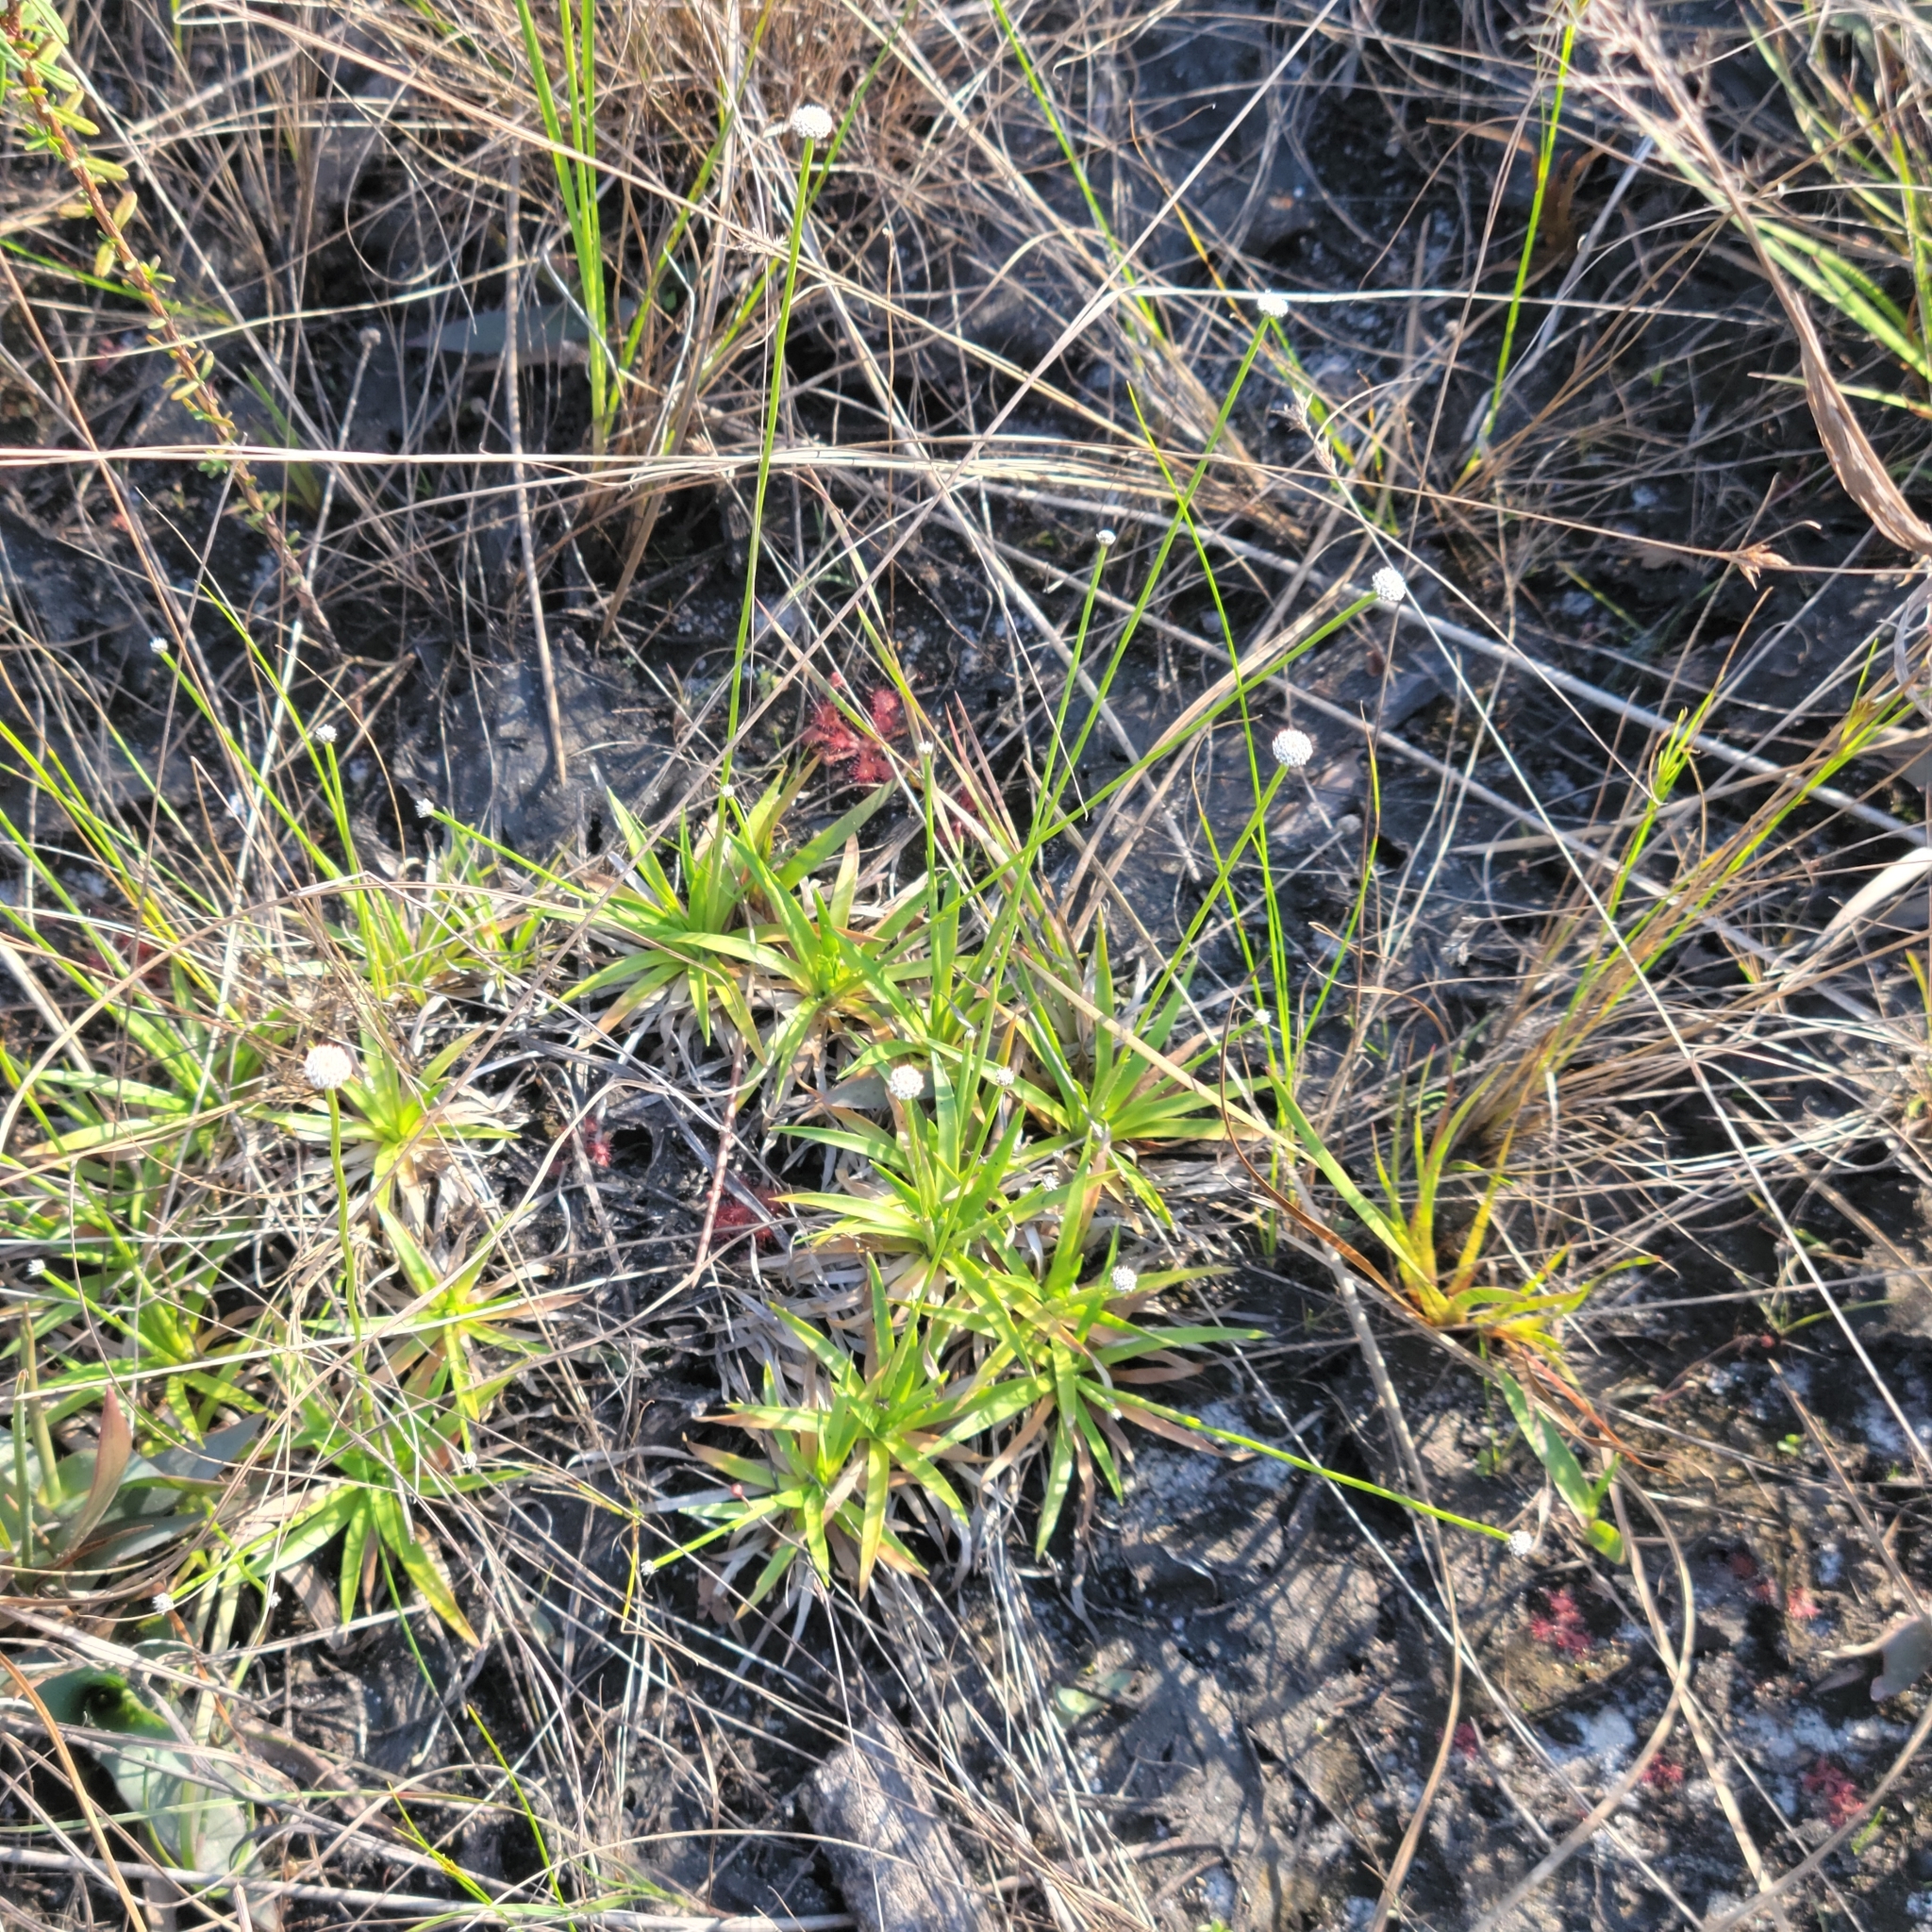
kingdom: Plantae
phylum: Tracheophyta
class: Liliopsida
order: Poales
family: Eriocaulaceae
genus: Paepalanthus
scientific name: Paepalanthus anceps
